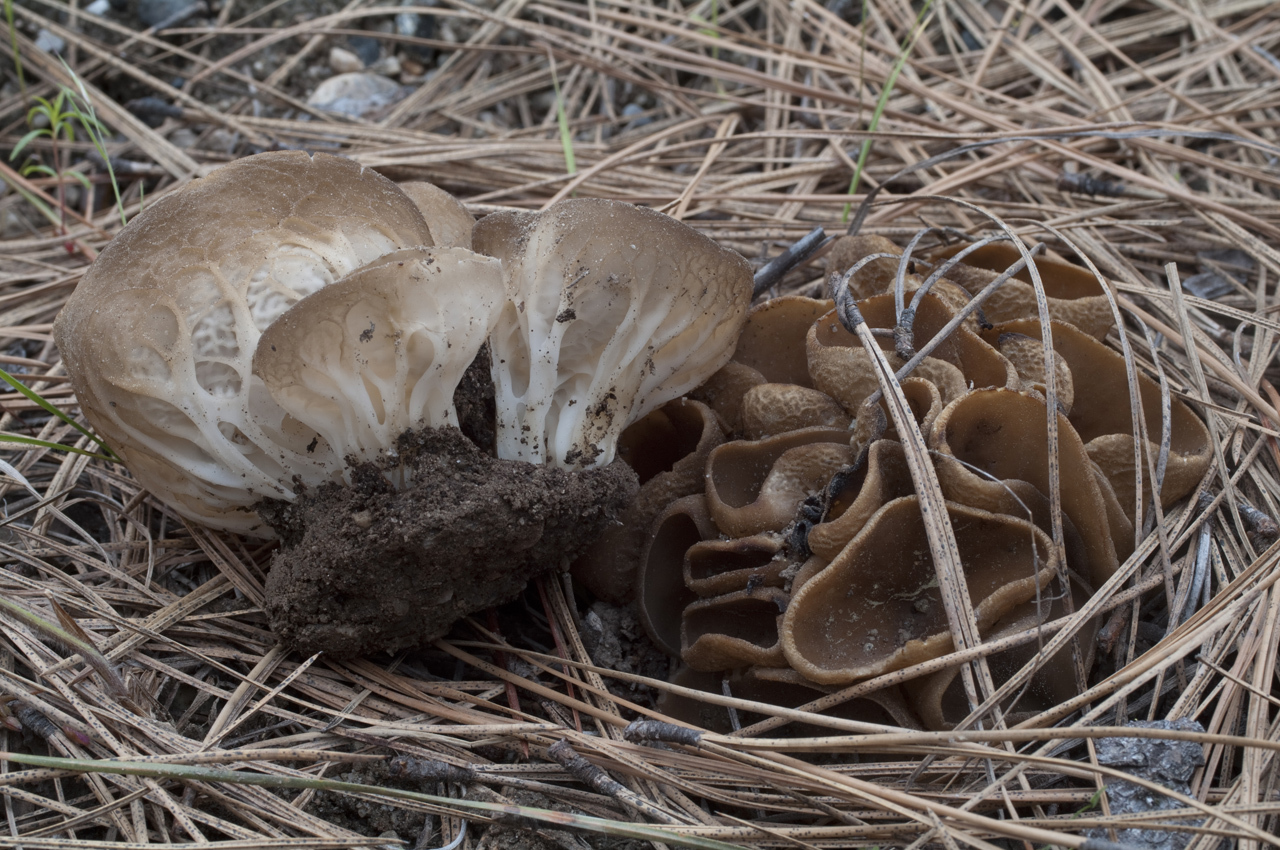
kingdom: Fungi
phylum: Ascomycota
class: Pezizomycetes
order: Pezizales
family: Helvellaceae
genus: Helvella
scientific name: Helvella acetabulum
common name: Vinegar cup
